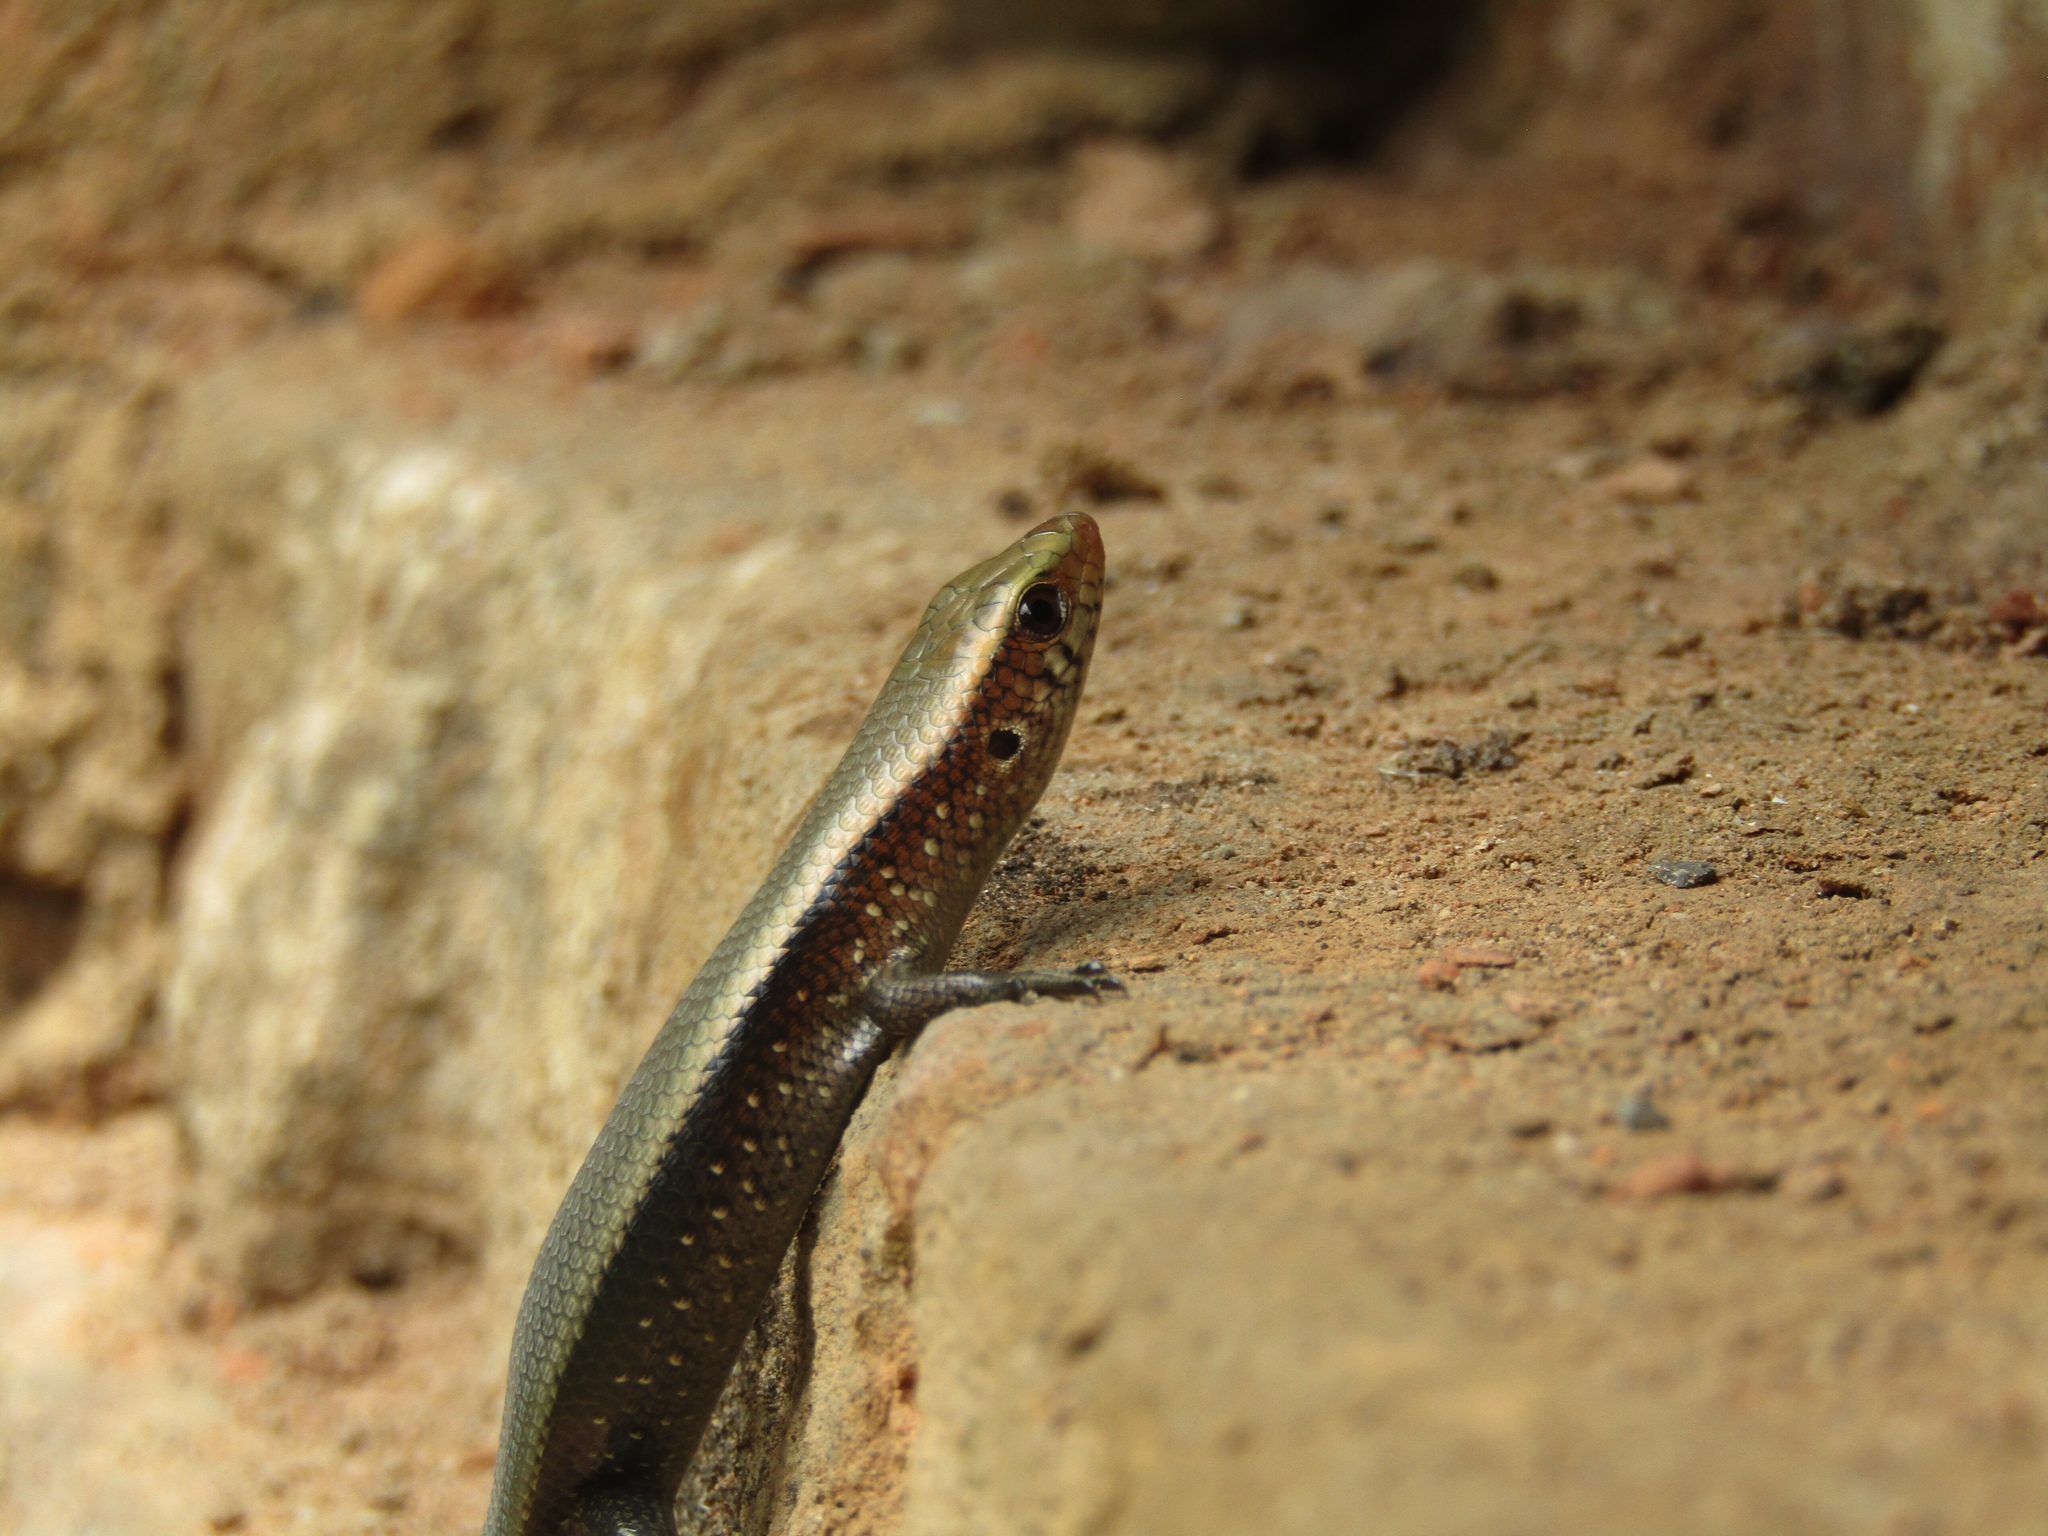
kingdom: Animalia
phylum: Chordata
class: Squamata
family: Scincidae
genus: Eutropis
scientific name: Eutropis multifasciata
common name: Common mabuya
